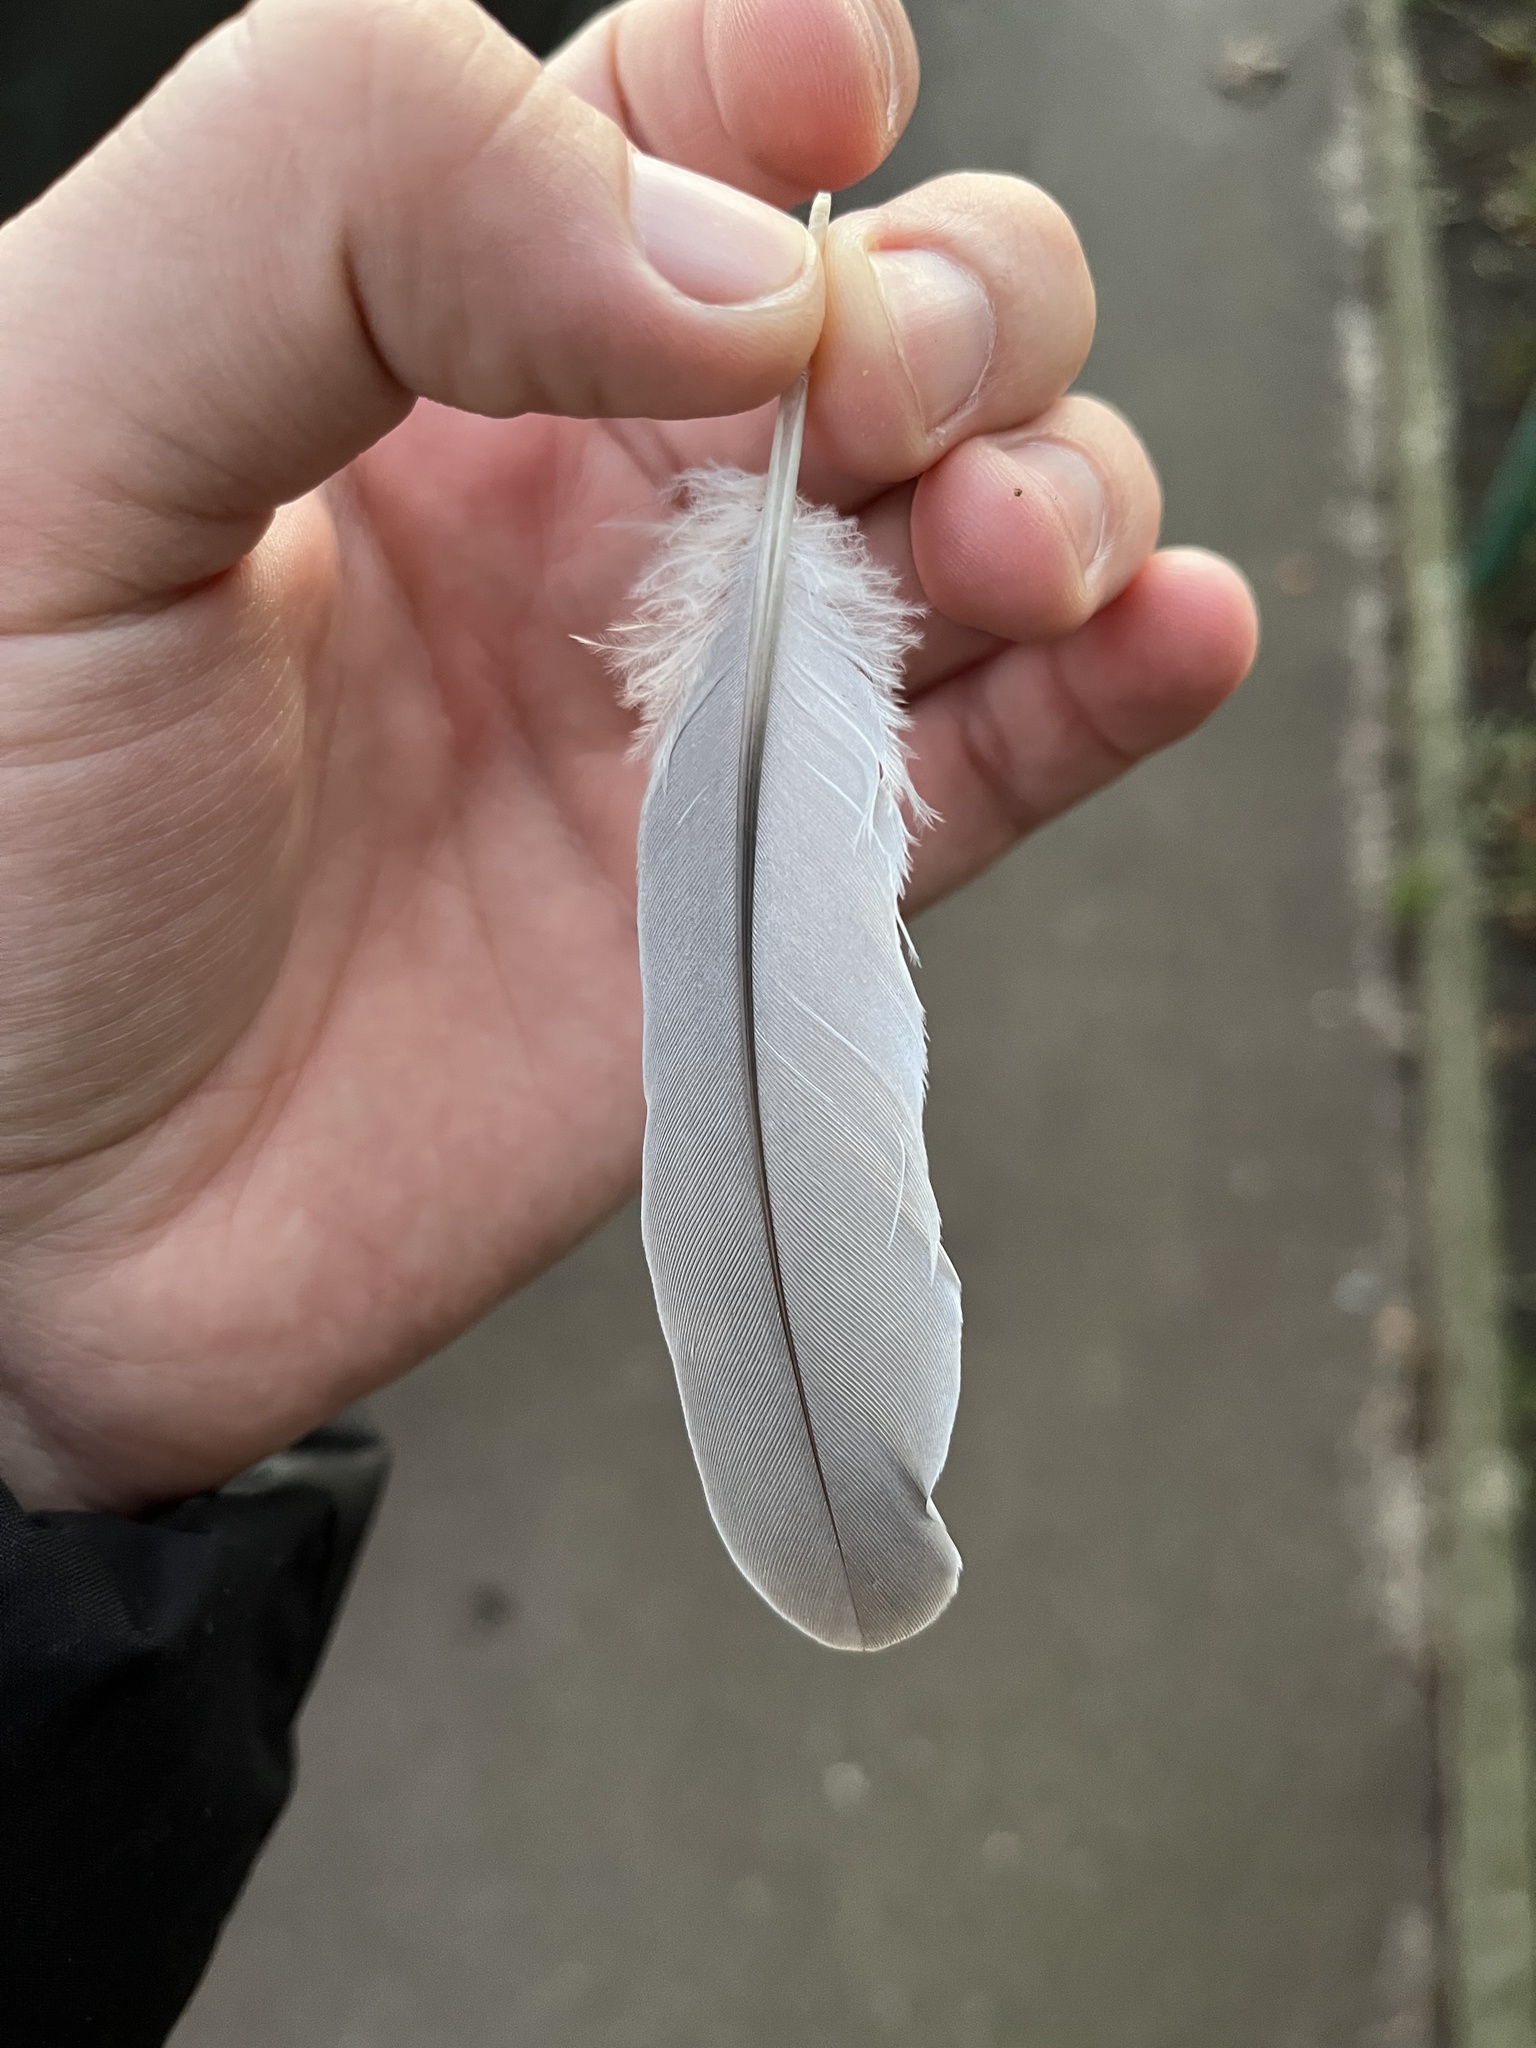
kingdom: Animalia
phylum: Chordata
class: Aves
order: Columbiformes
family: Columbidae
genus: Streptopelia
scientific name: Streptopelia decaocto
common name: Eurasian collared dove
